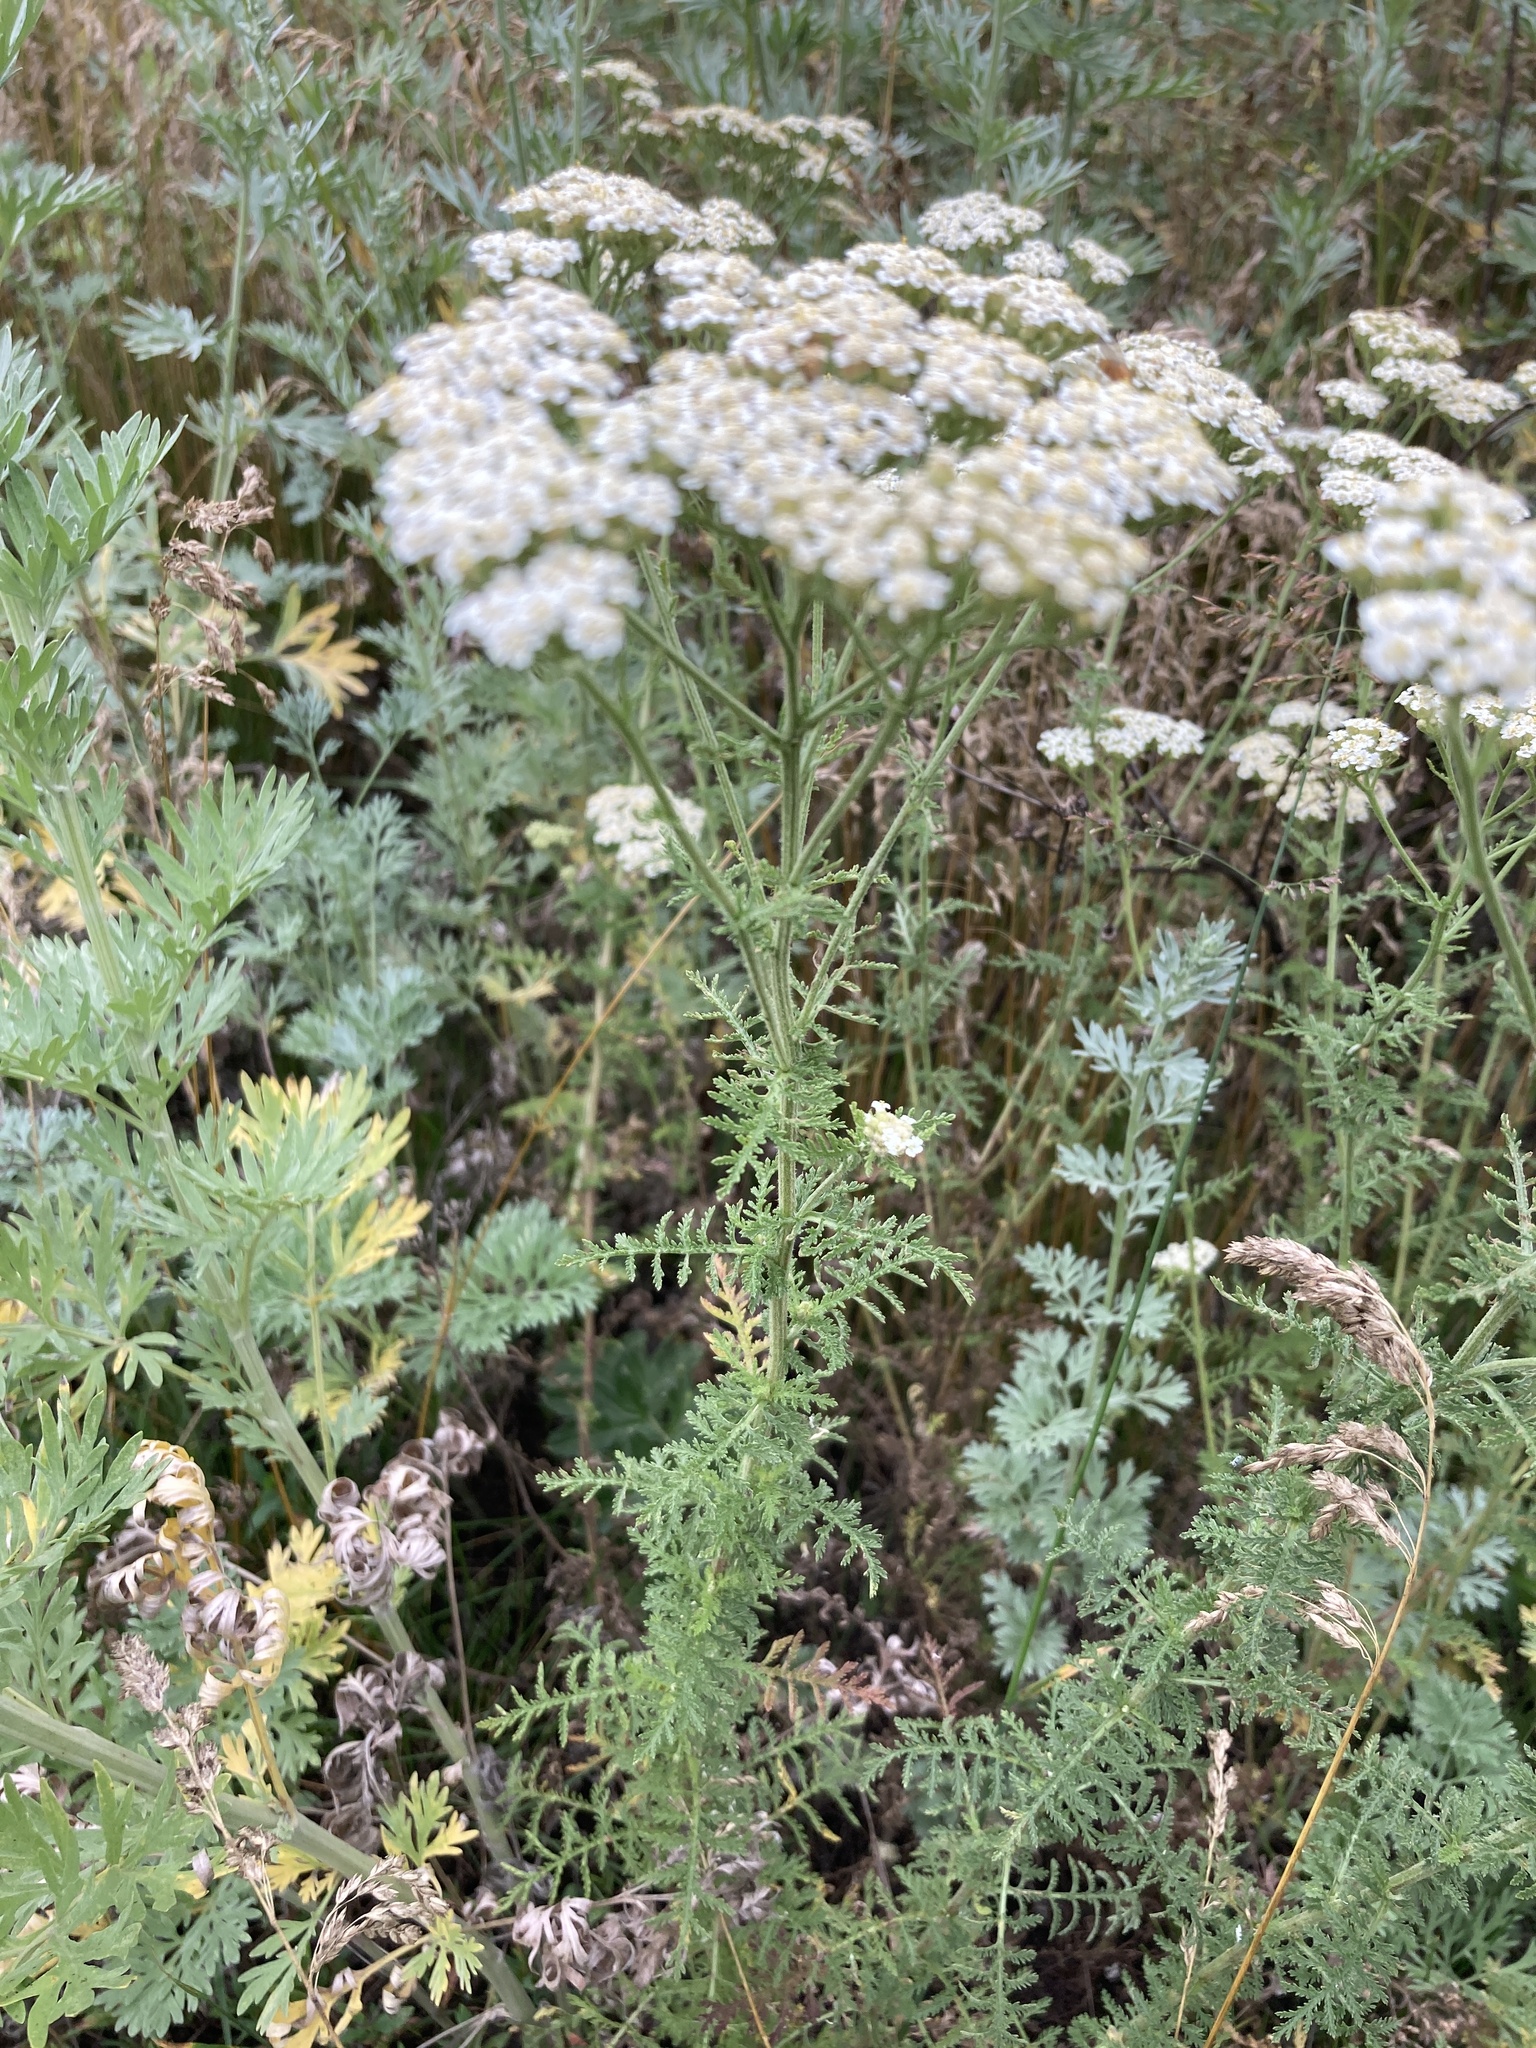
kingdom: Plantae
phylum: Tracheophyta
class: Magnoliopsida
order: Asterales
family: Asteraceae
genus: Achillea
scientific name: Achillea nobilis
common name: Noble yarrow
